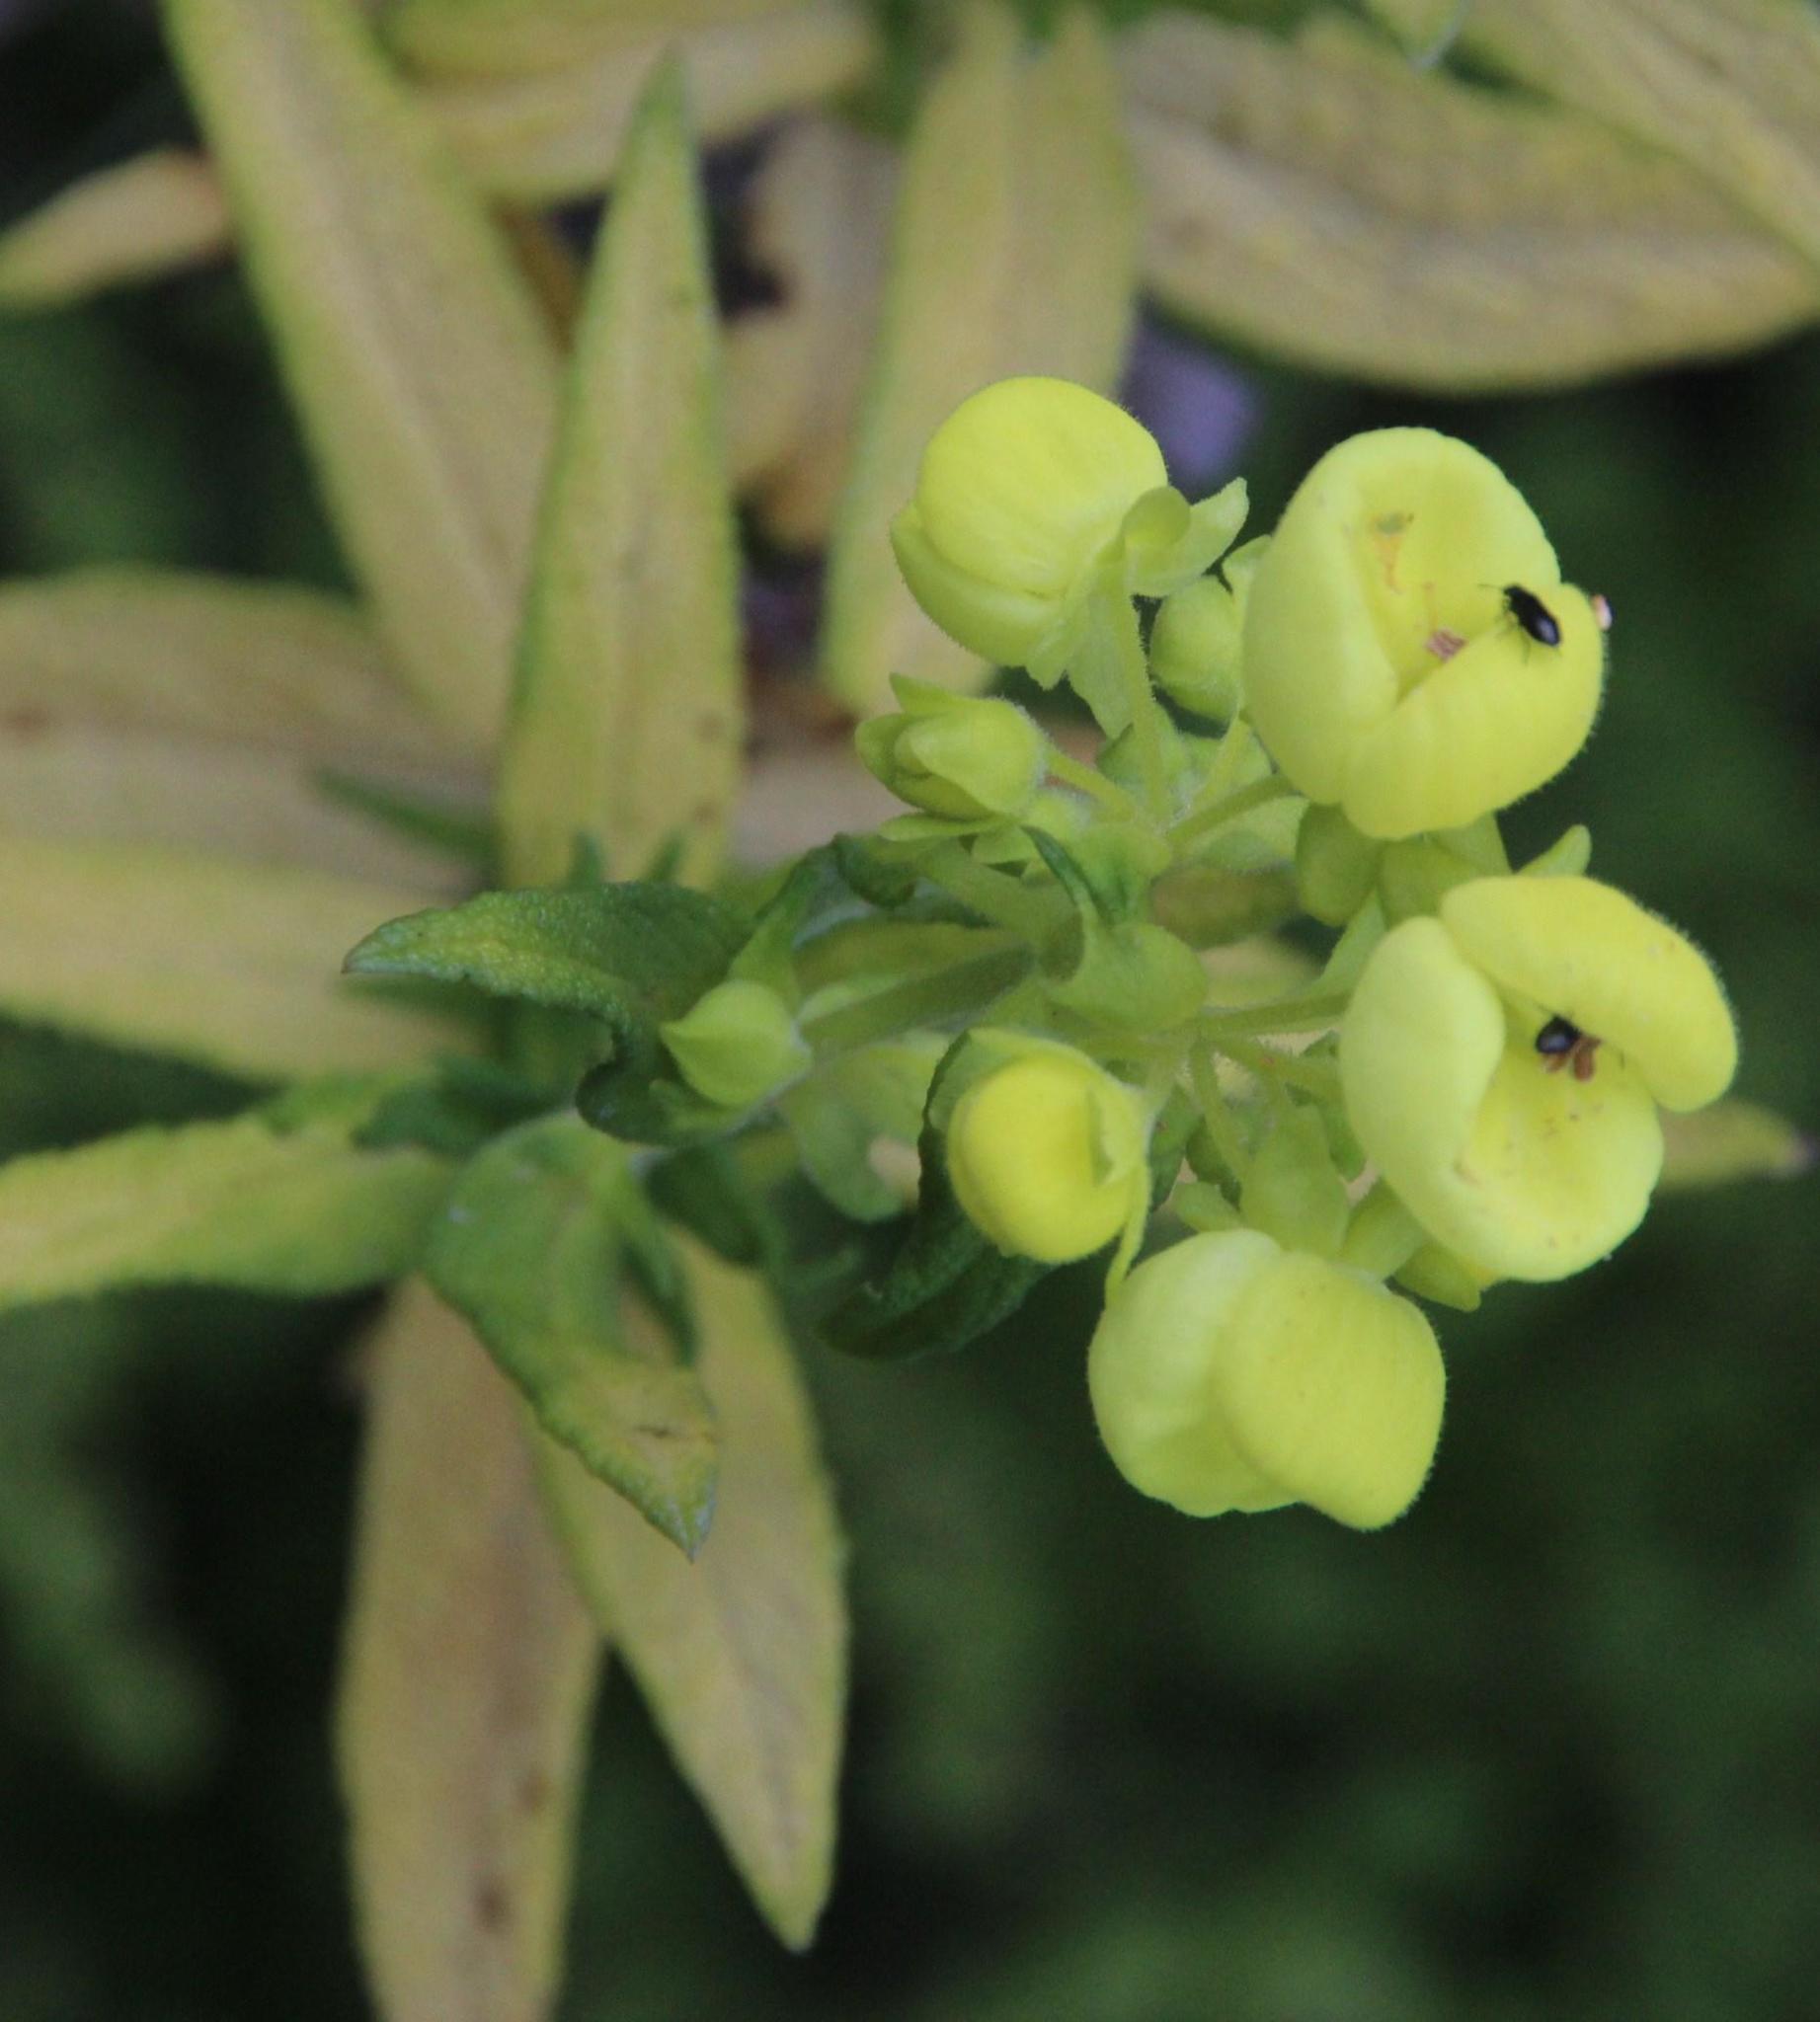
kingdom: Plantae
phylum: Tracheophyta
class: Magnoliopsida
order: Lamiales
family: Calceolariaceae
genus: Calceolaria
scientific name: Calceolaria morisii
